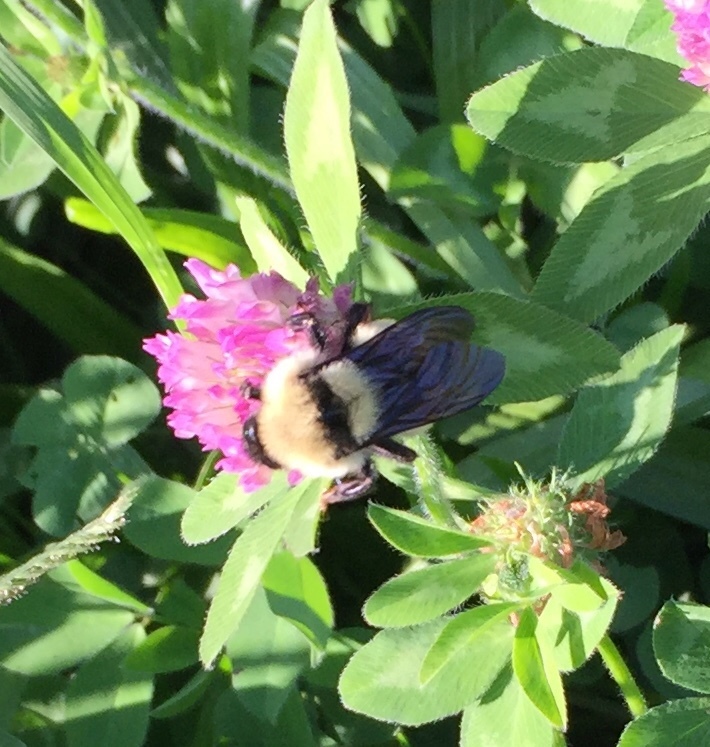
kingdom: Animalia
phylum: Arthropoda
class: Insecta
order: Hymenoptera
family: Apidae
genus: Bombus
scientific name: Bombus fervidus
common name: Yellow bumble bee
